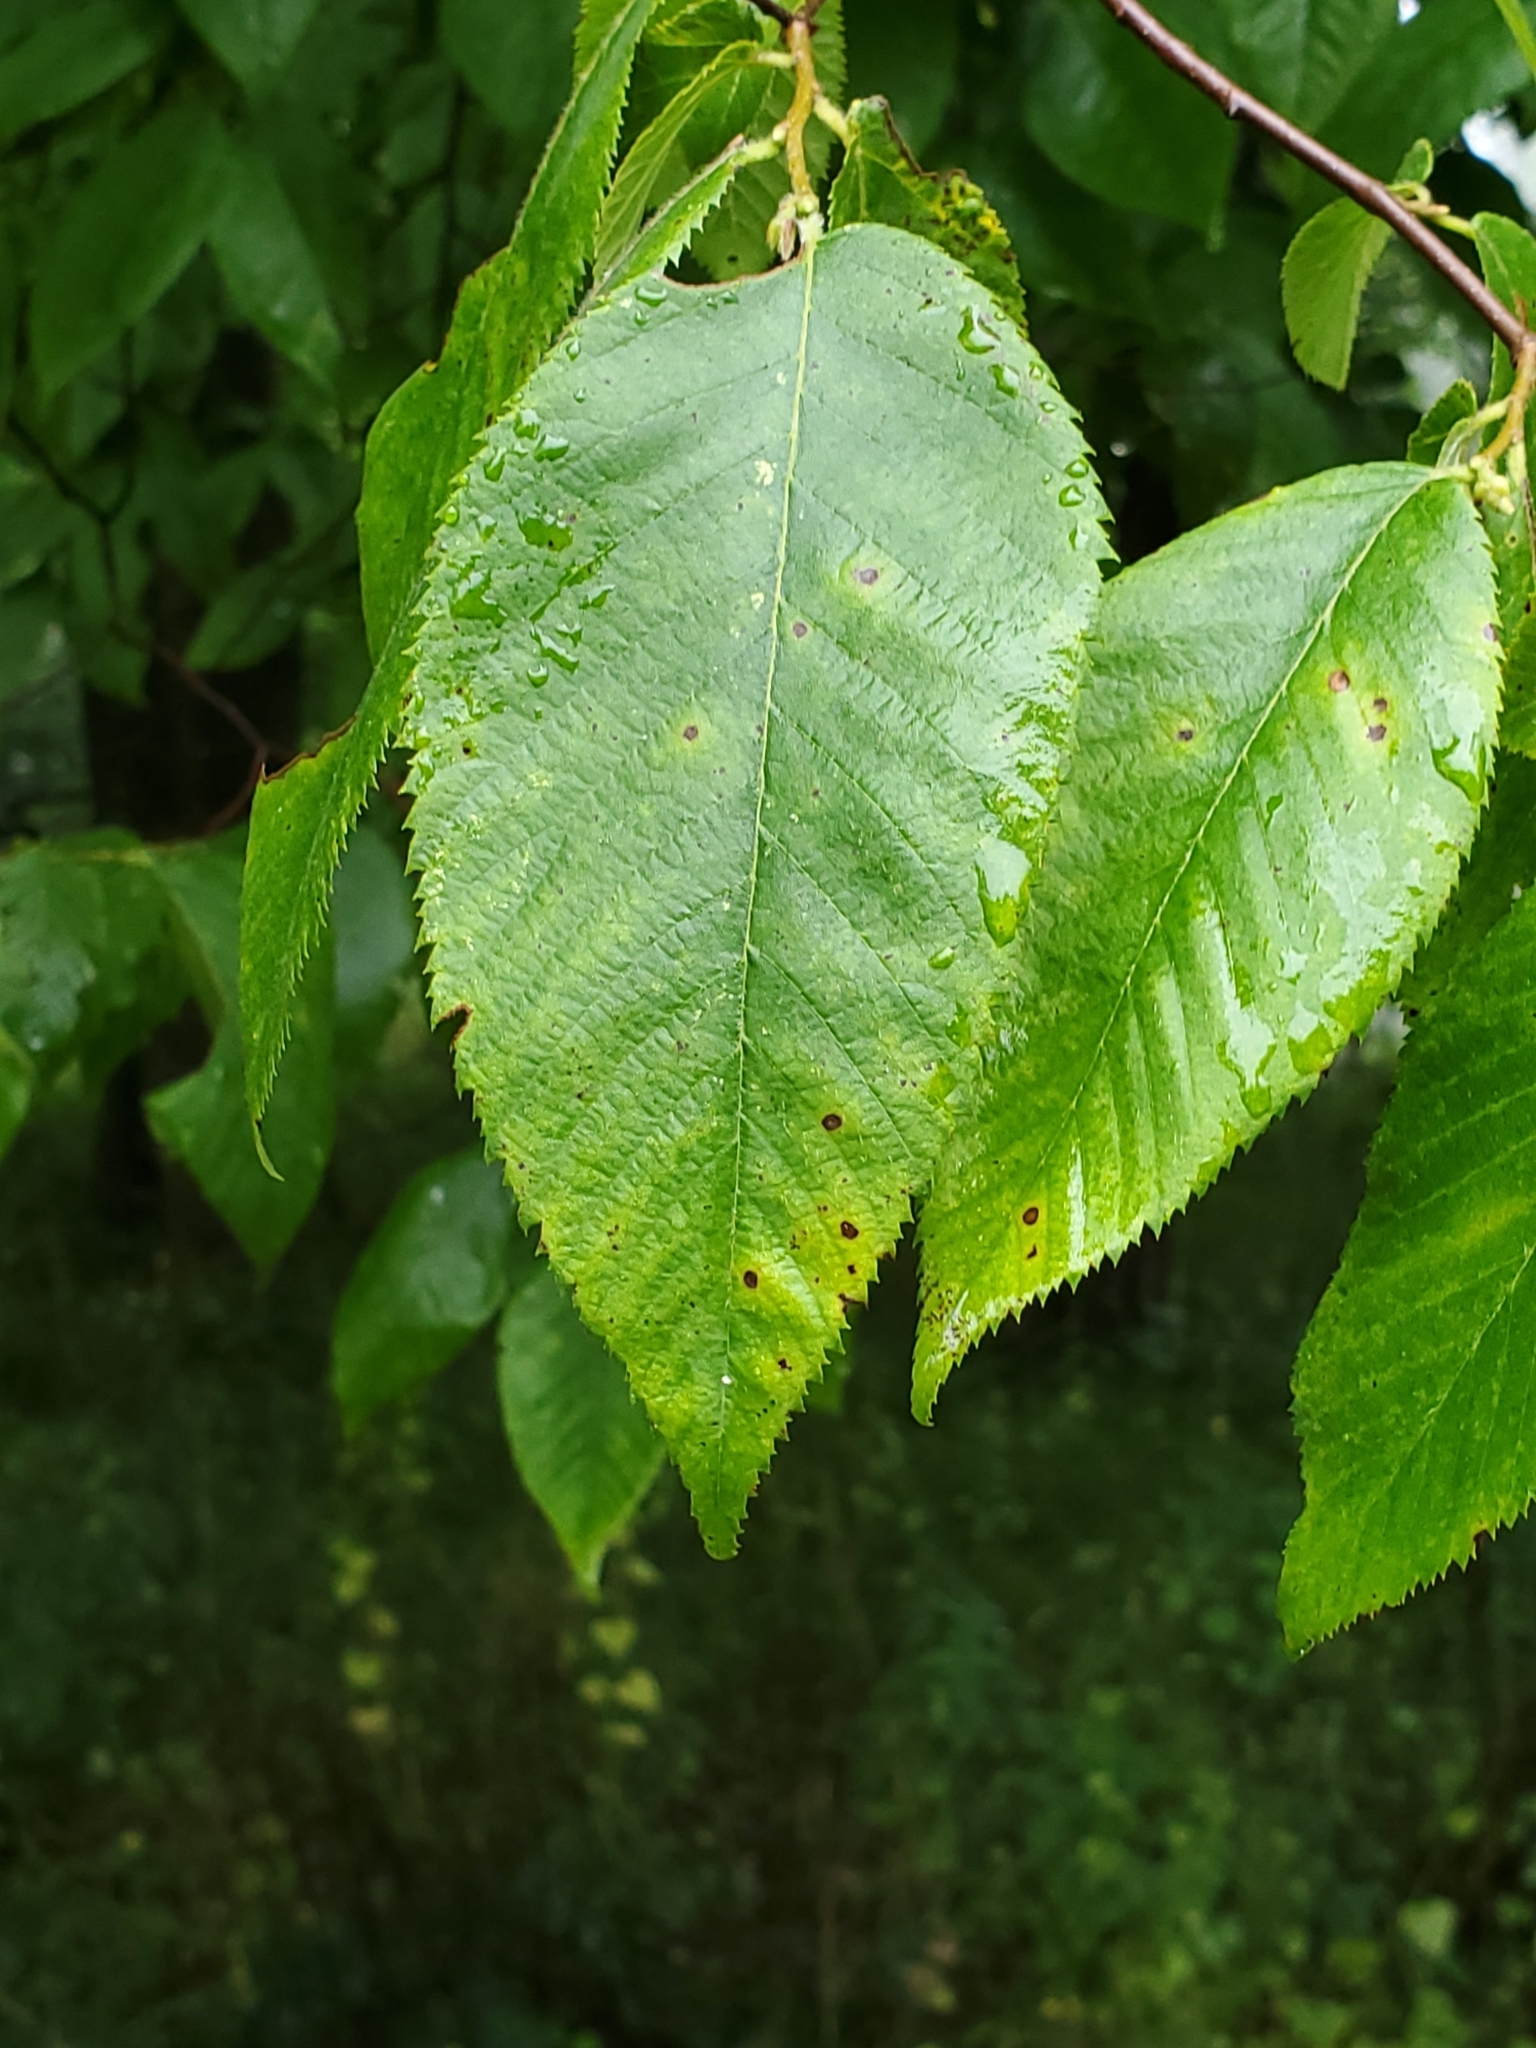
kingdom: Plantae
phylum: Tracheophyta
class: Magnoliopsida
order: Fagales
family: Betulaceae
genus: Ostrya
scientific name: Ostrya virginiana
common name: Ironwood
